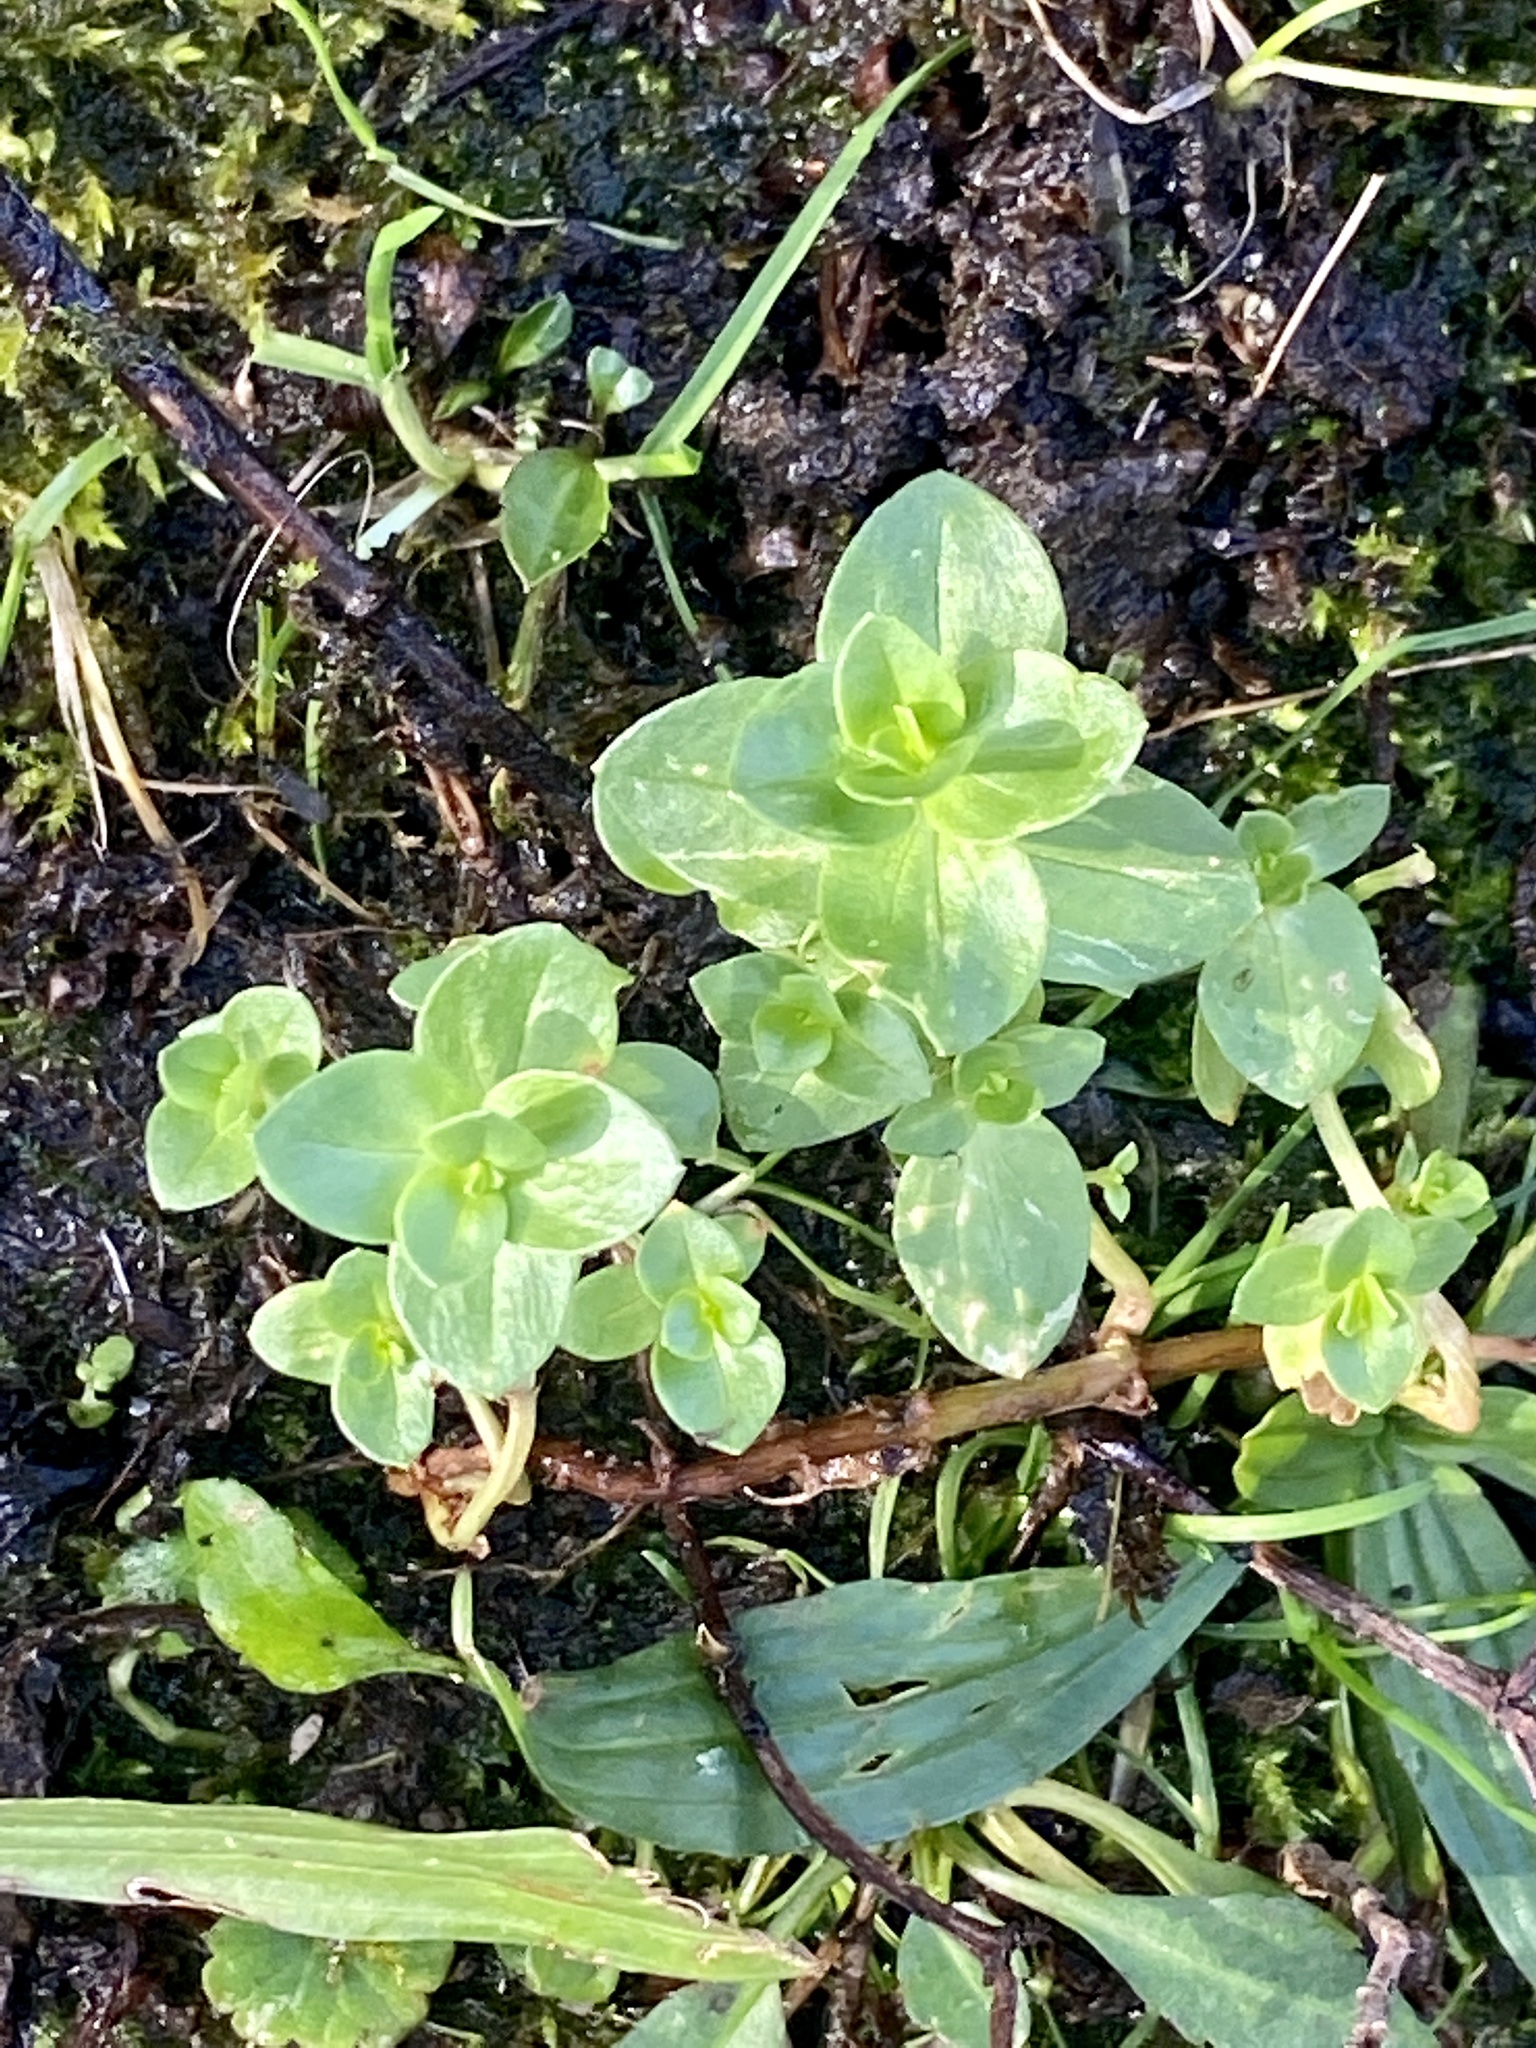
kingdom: Plantae
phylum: Tracheophyta
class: Magnoliopsida
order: Ericales
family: Primulaceae
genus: Lysimachia
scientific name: Lysimachia arvensis
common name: Scarlet pimpernel
